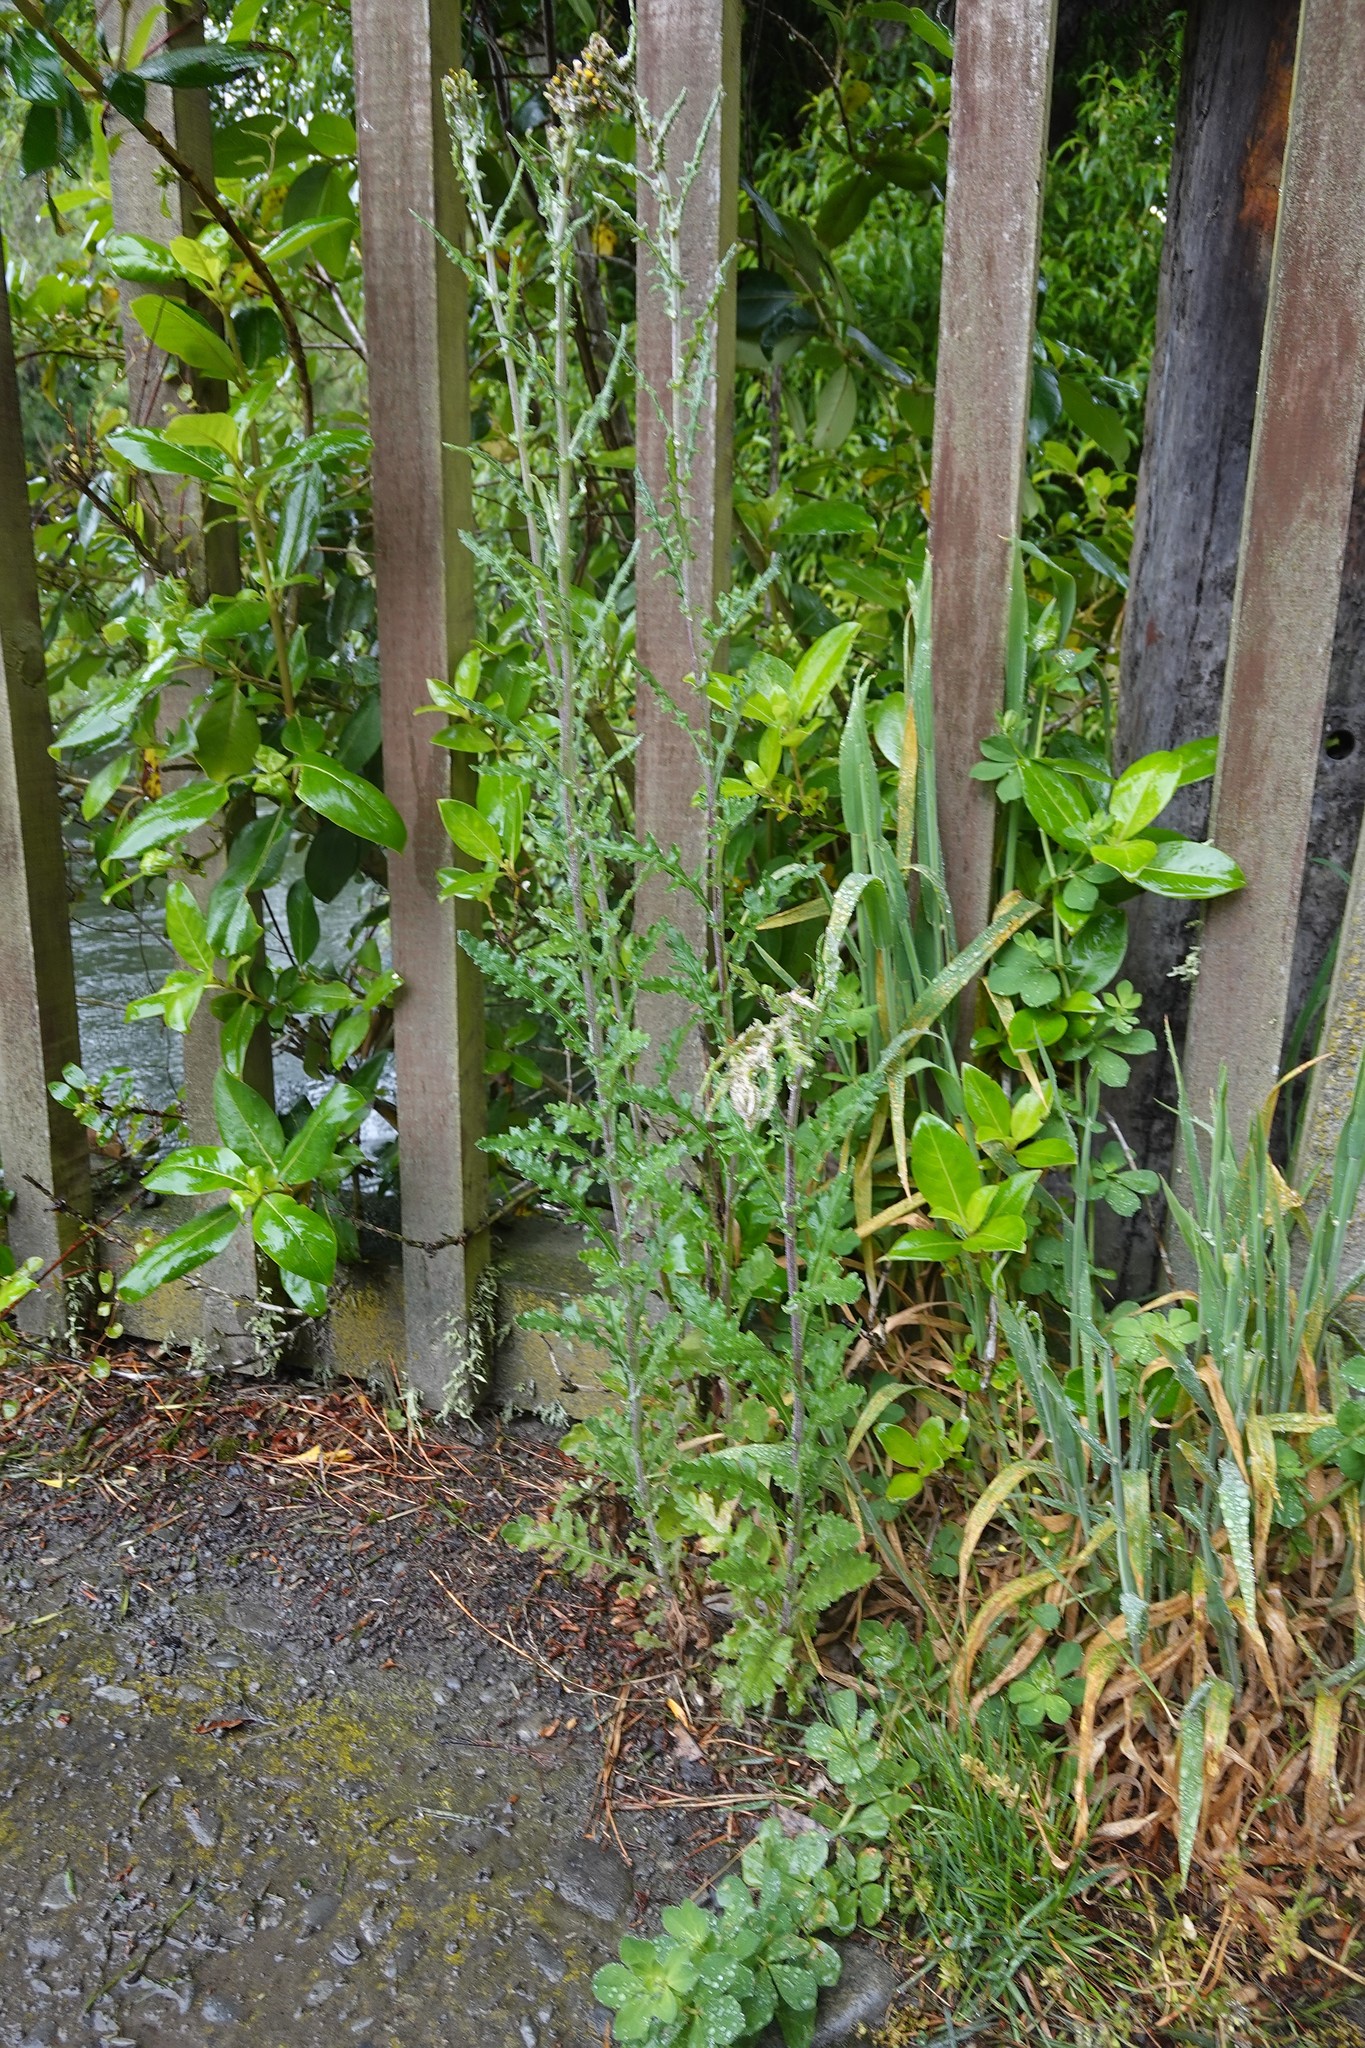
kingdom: Plantae
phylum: Tracheophyta
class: Magnoliopsida
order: Asterales
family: Asteraceae
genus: Senecio
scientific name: Senecio glomeratus
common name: Cutleaf burnweed
